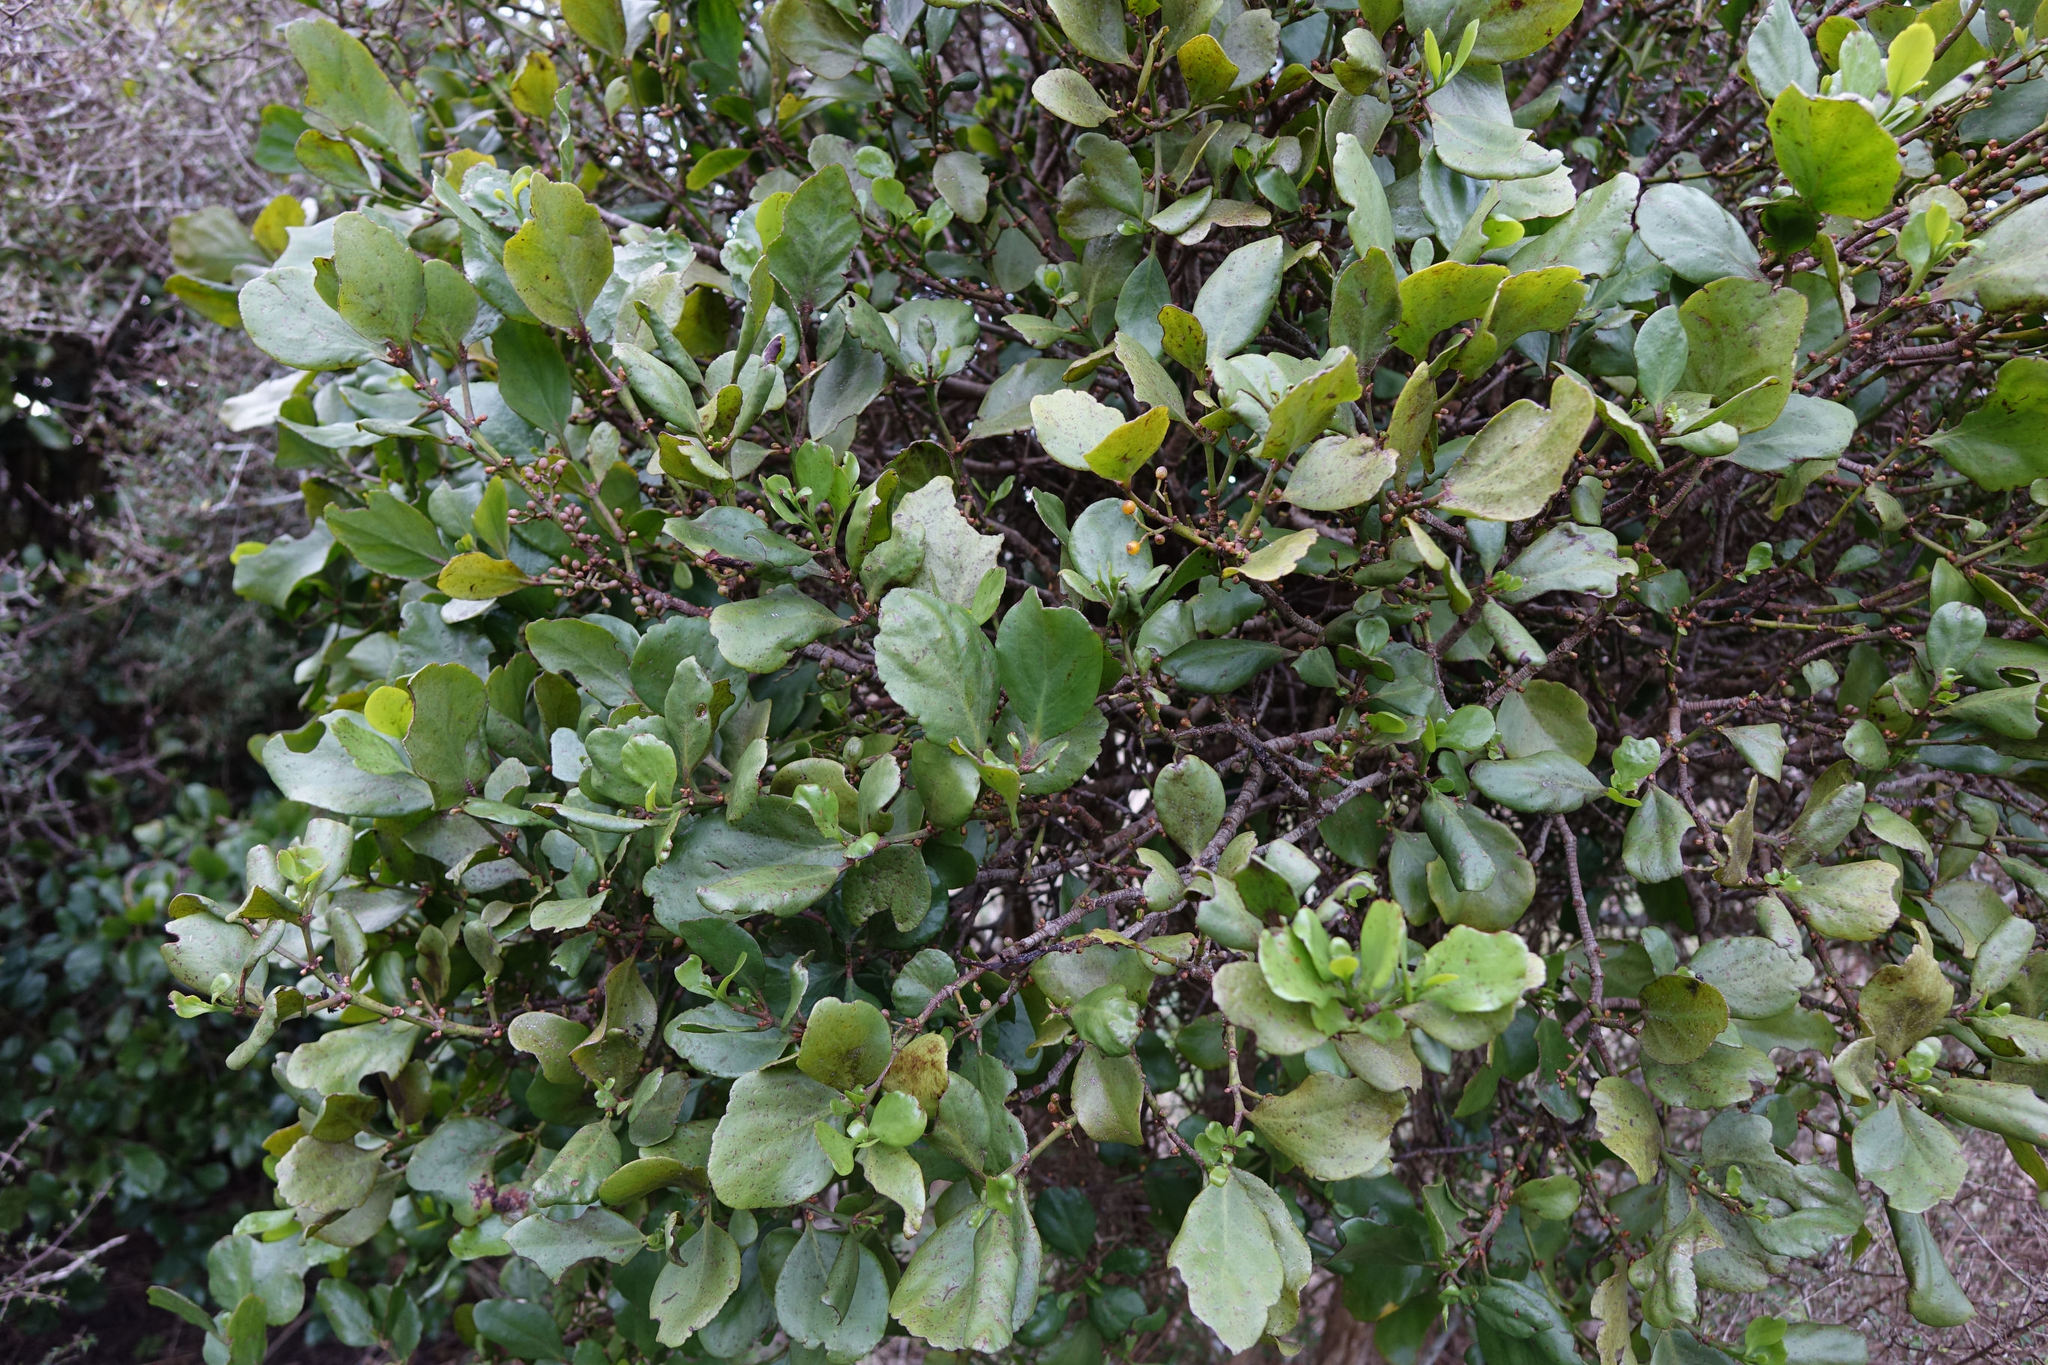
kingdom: Plantae
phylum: Tracheophyta
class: Magnoliopsida
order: Santalales
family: Loranthaceae
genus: Ileostylus
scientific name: Ileostylus micranthus
